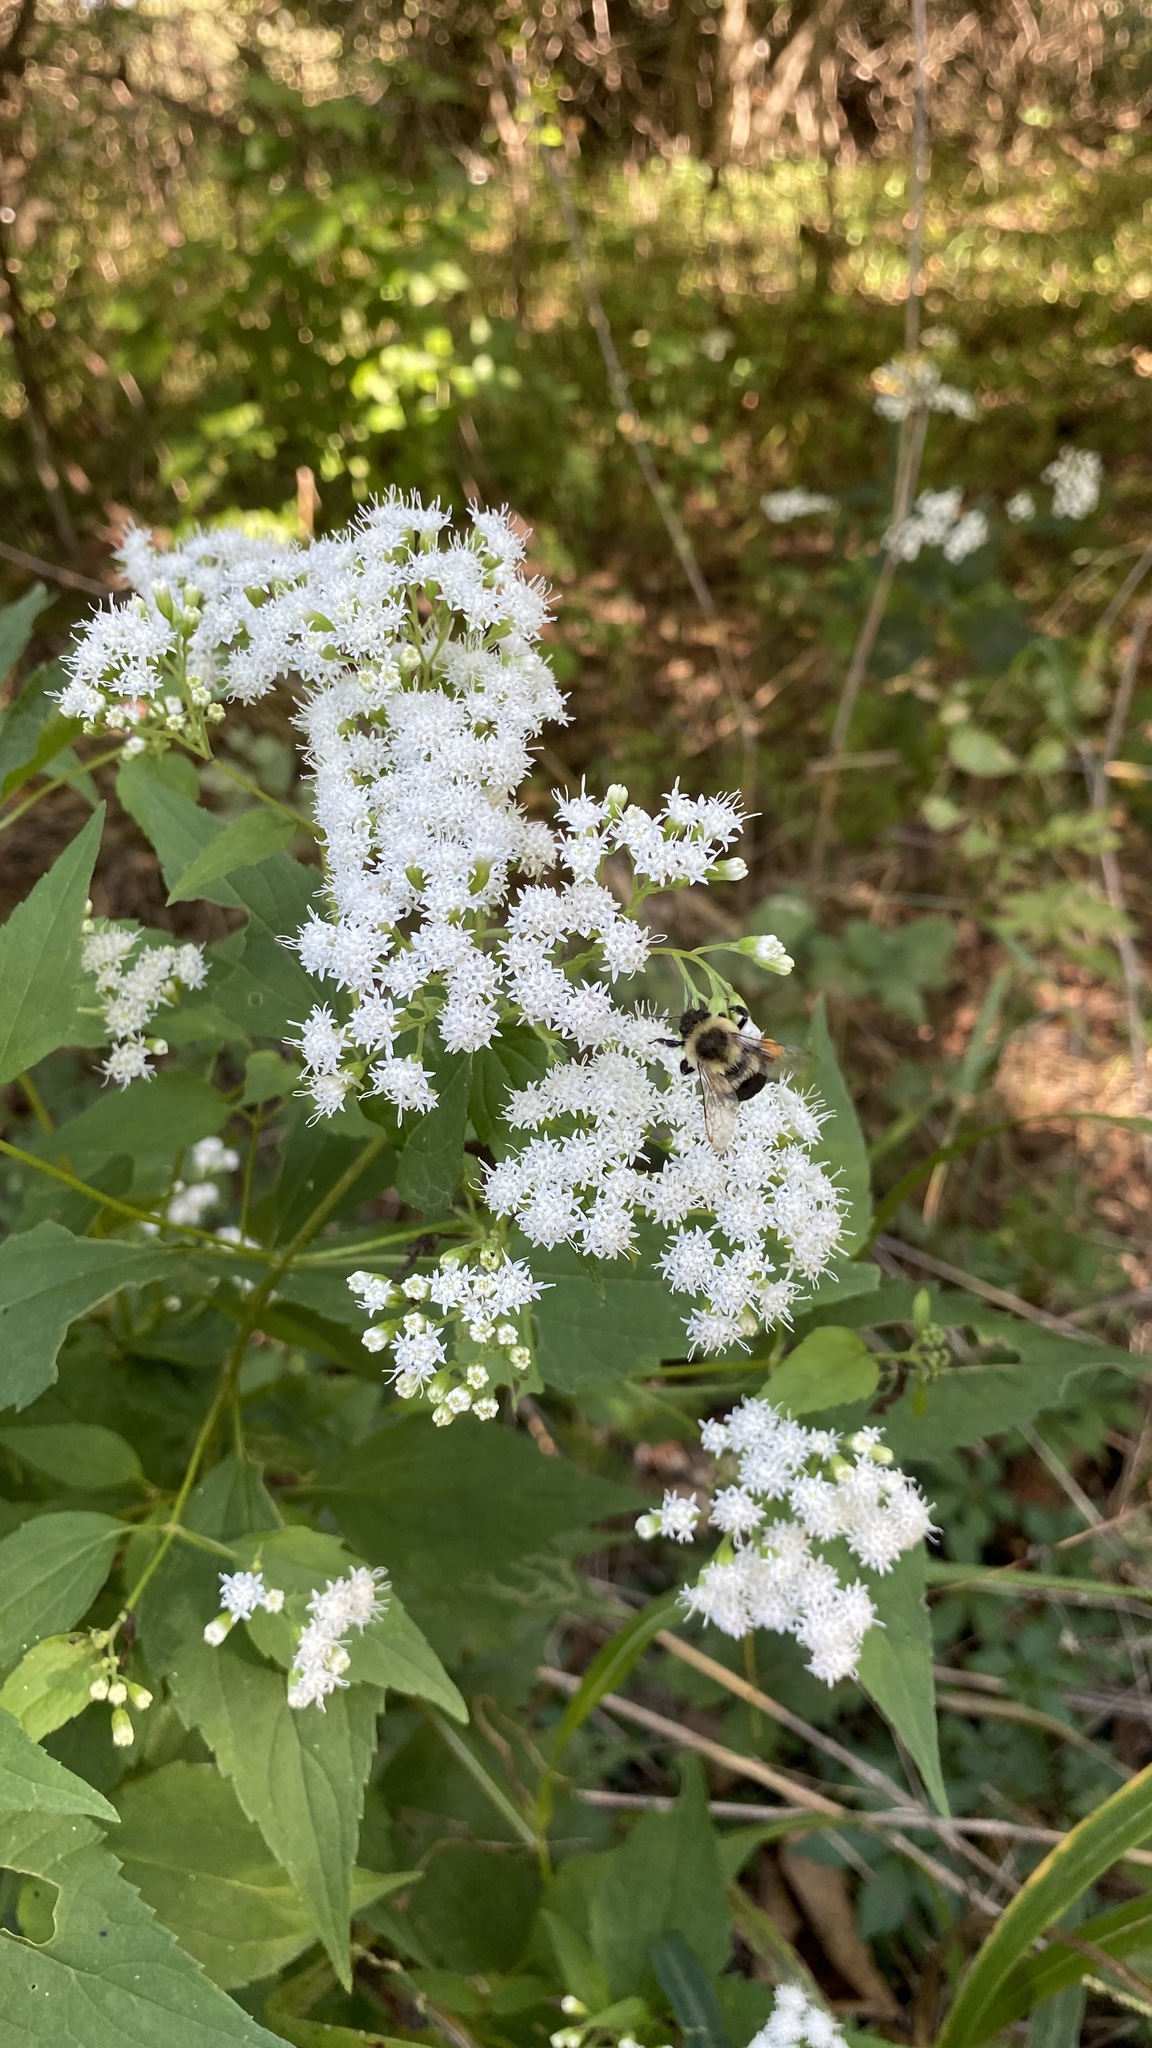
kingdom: Plantae
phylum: Tracheophyta
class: Magnoliopsida
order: Asterales
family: Asteraceae
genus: Ageratina
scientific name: Ageratina altissima
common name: White snakeroot
